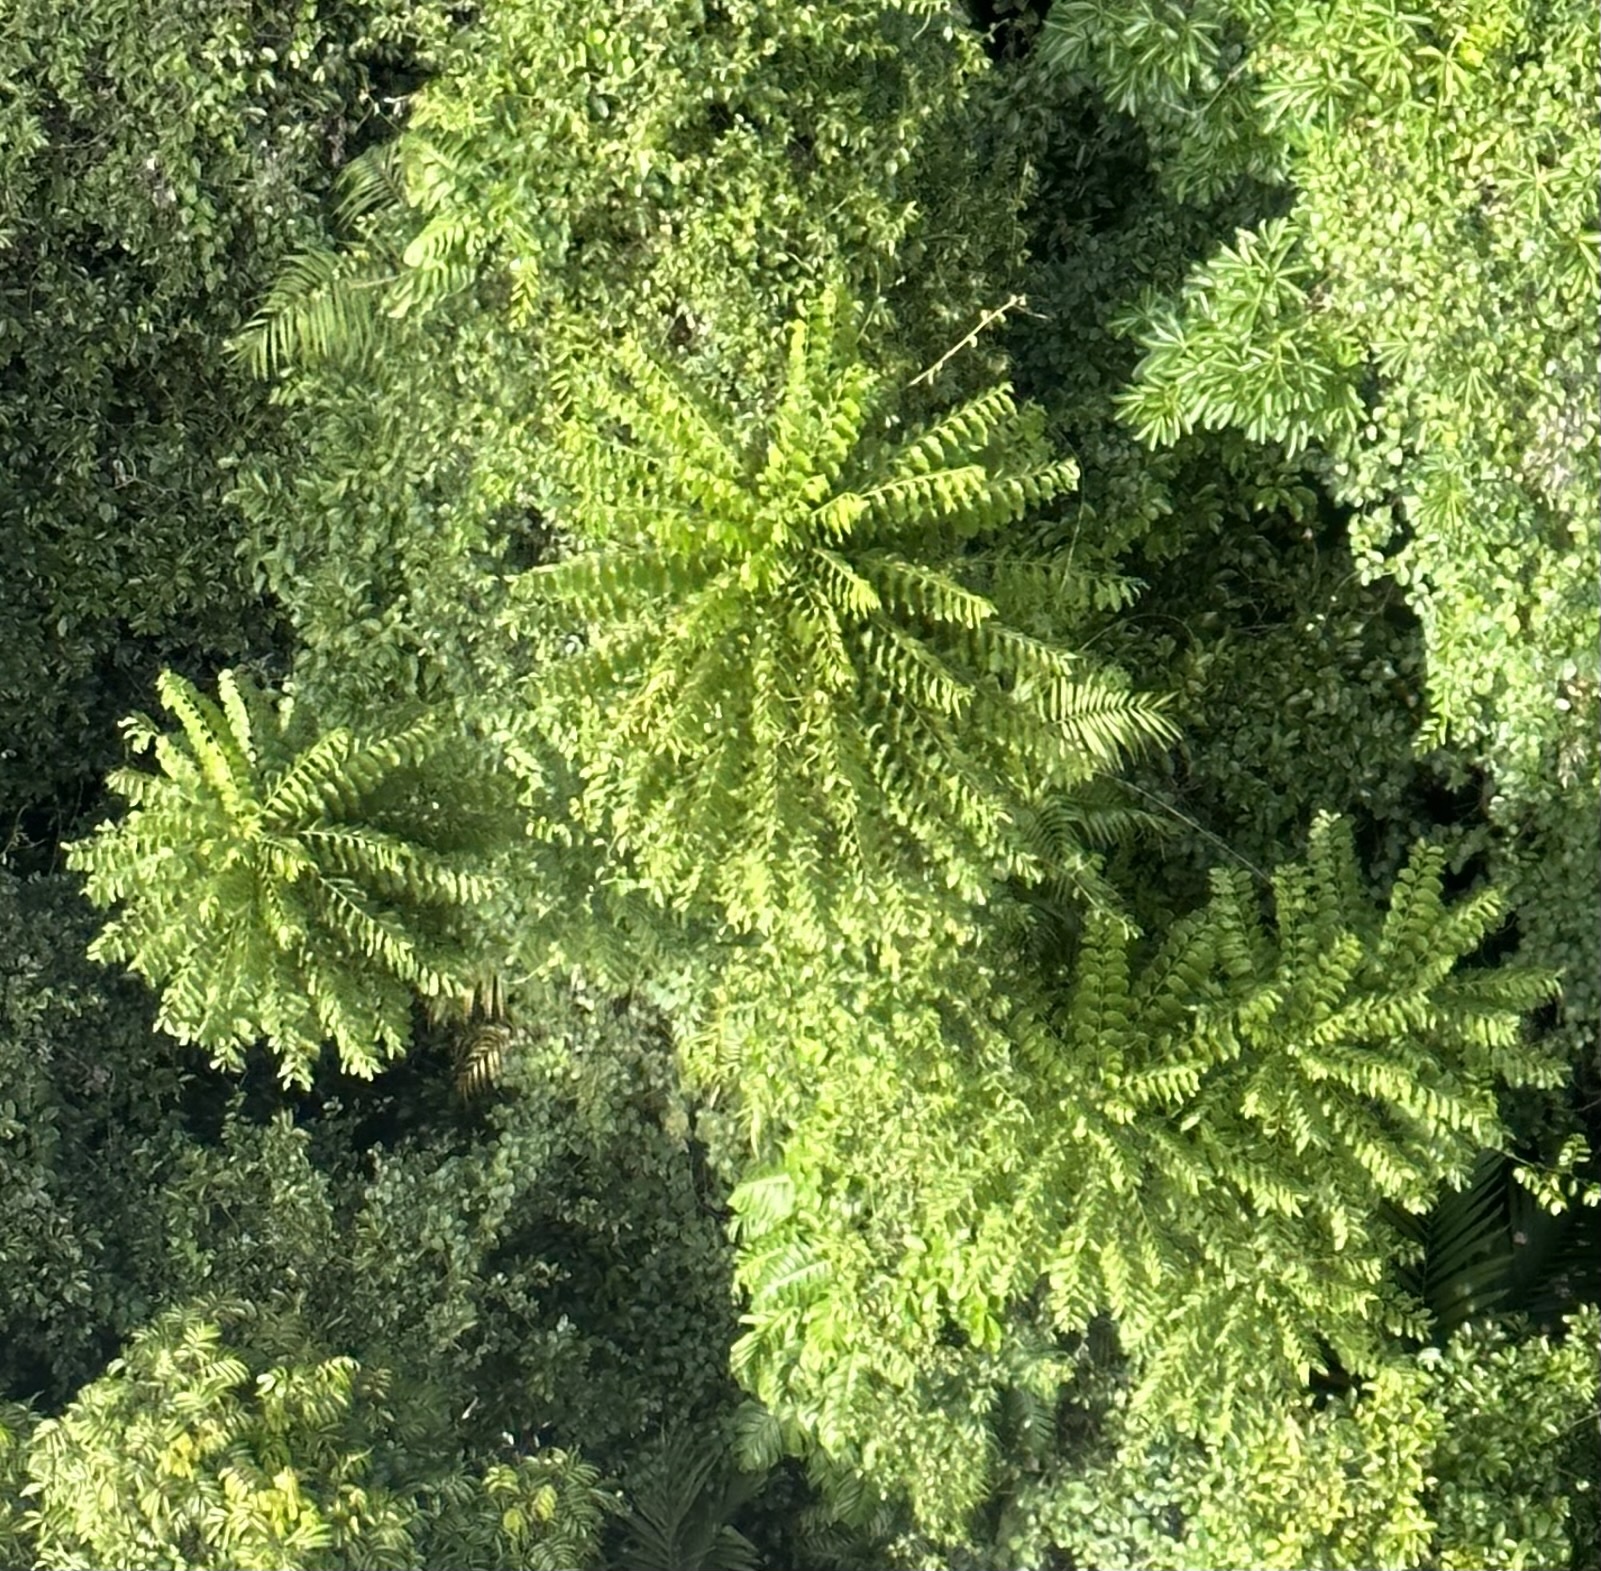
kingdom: Plantae
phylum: Tracheophyta
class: Magnoliopsida
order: Apiales
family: Araliaceae
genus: Polyscias
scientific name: Polyscias murrayi
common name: Pencil cedar
